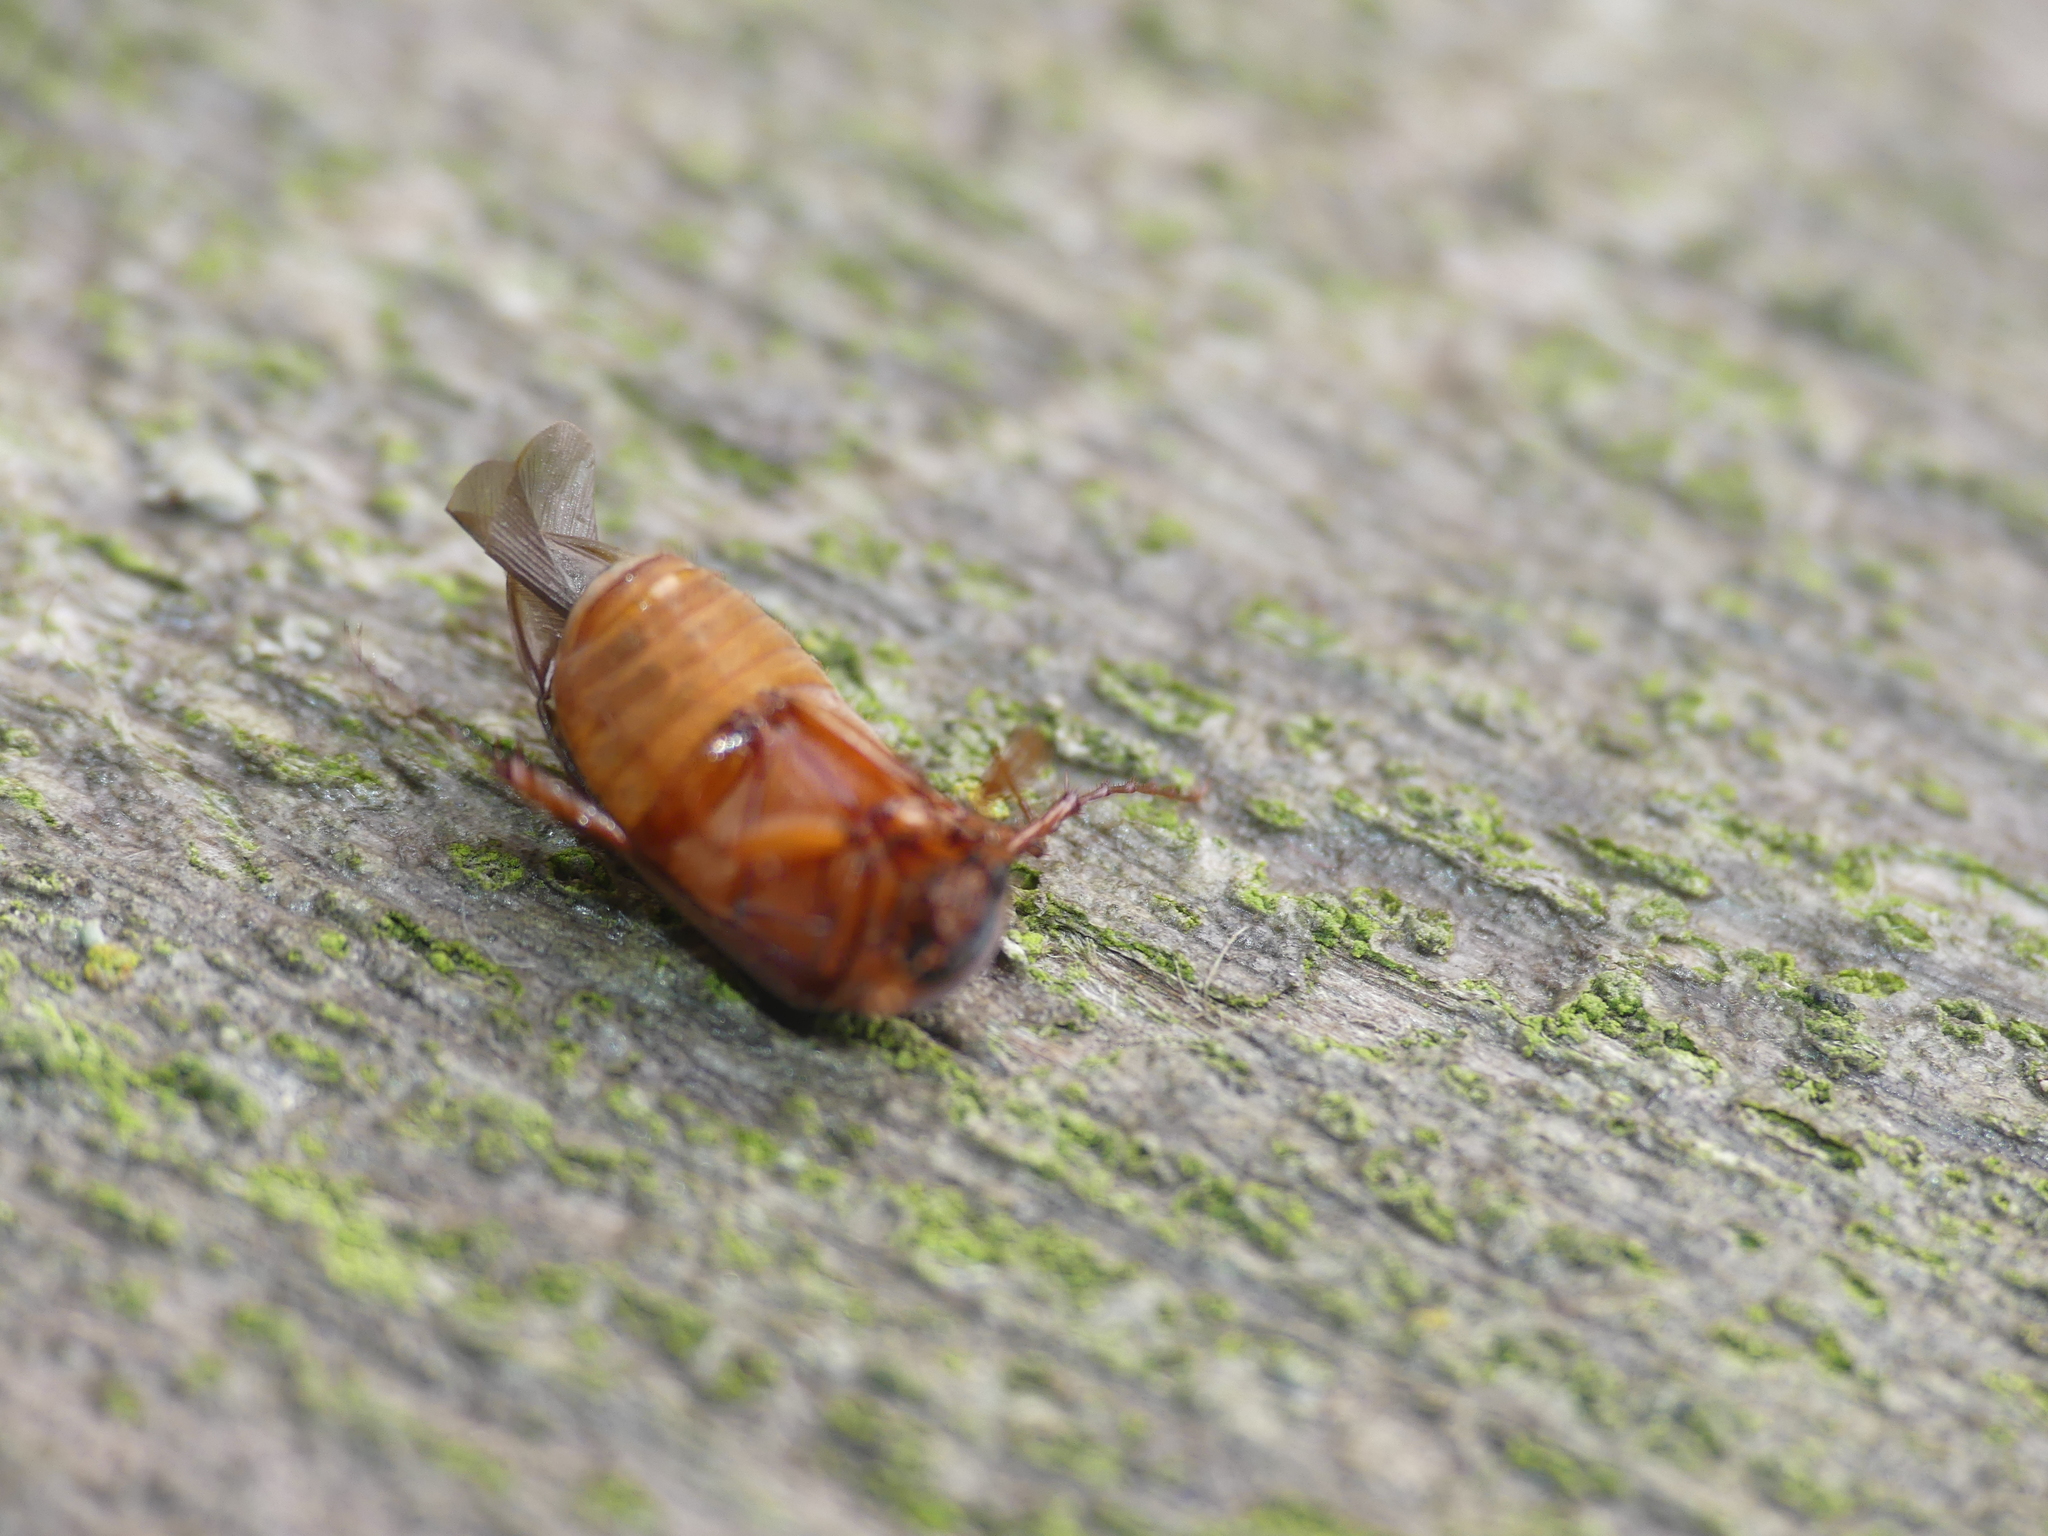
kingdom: Animalia
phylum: Arthropoda
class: Insecta
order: Coleoptera
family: Scarabaeidae
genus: Serica
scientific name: Serica brunnea
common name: Brown chafer
